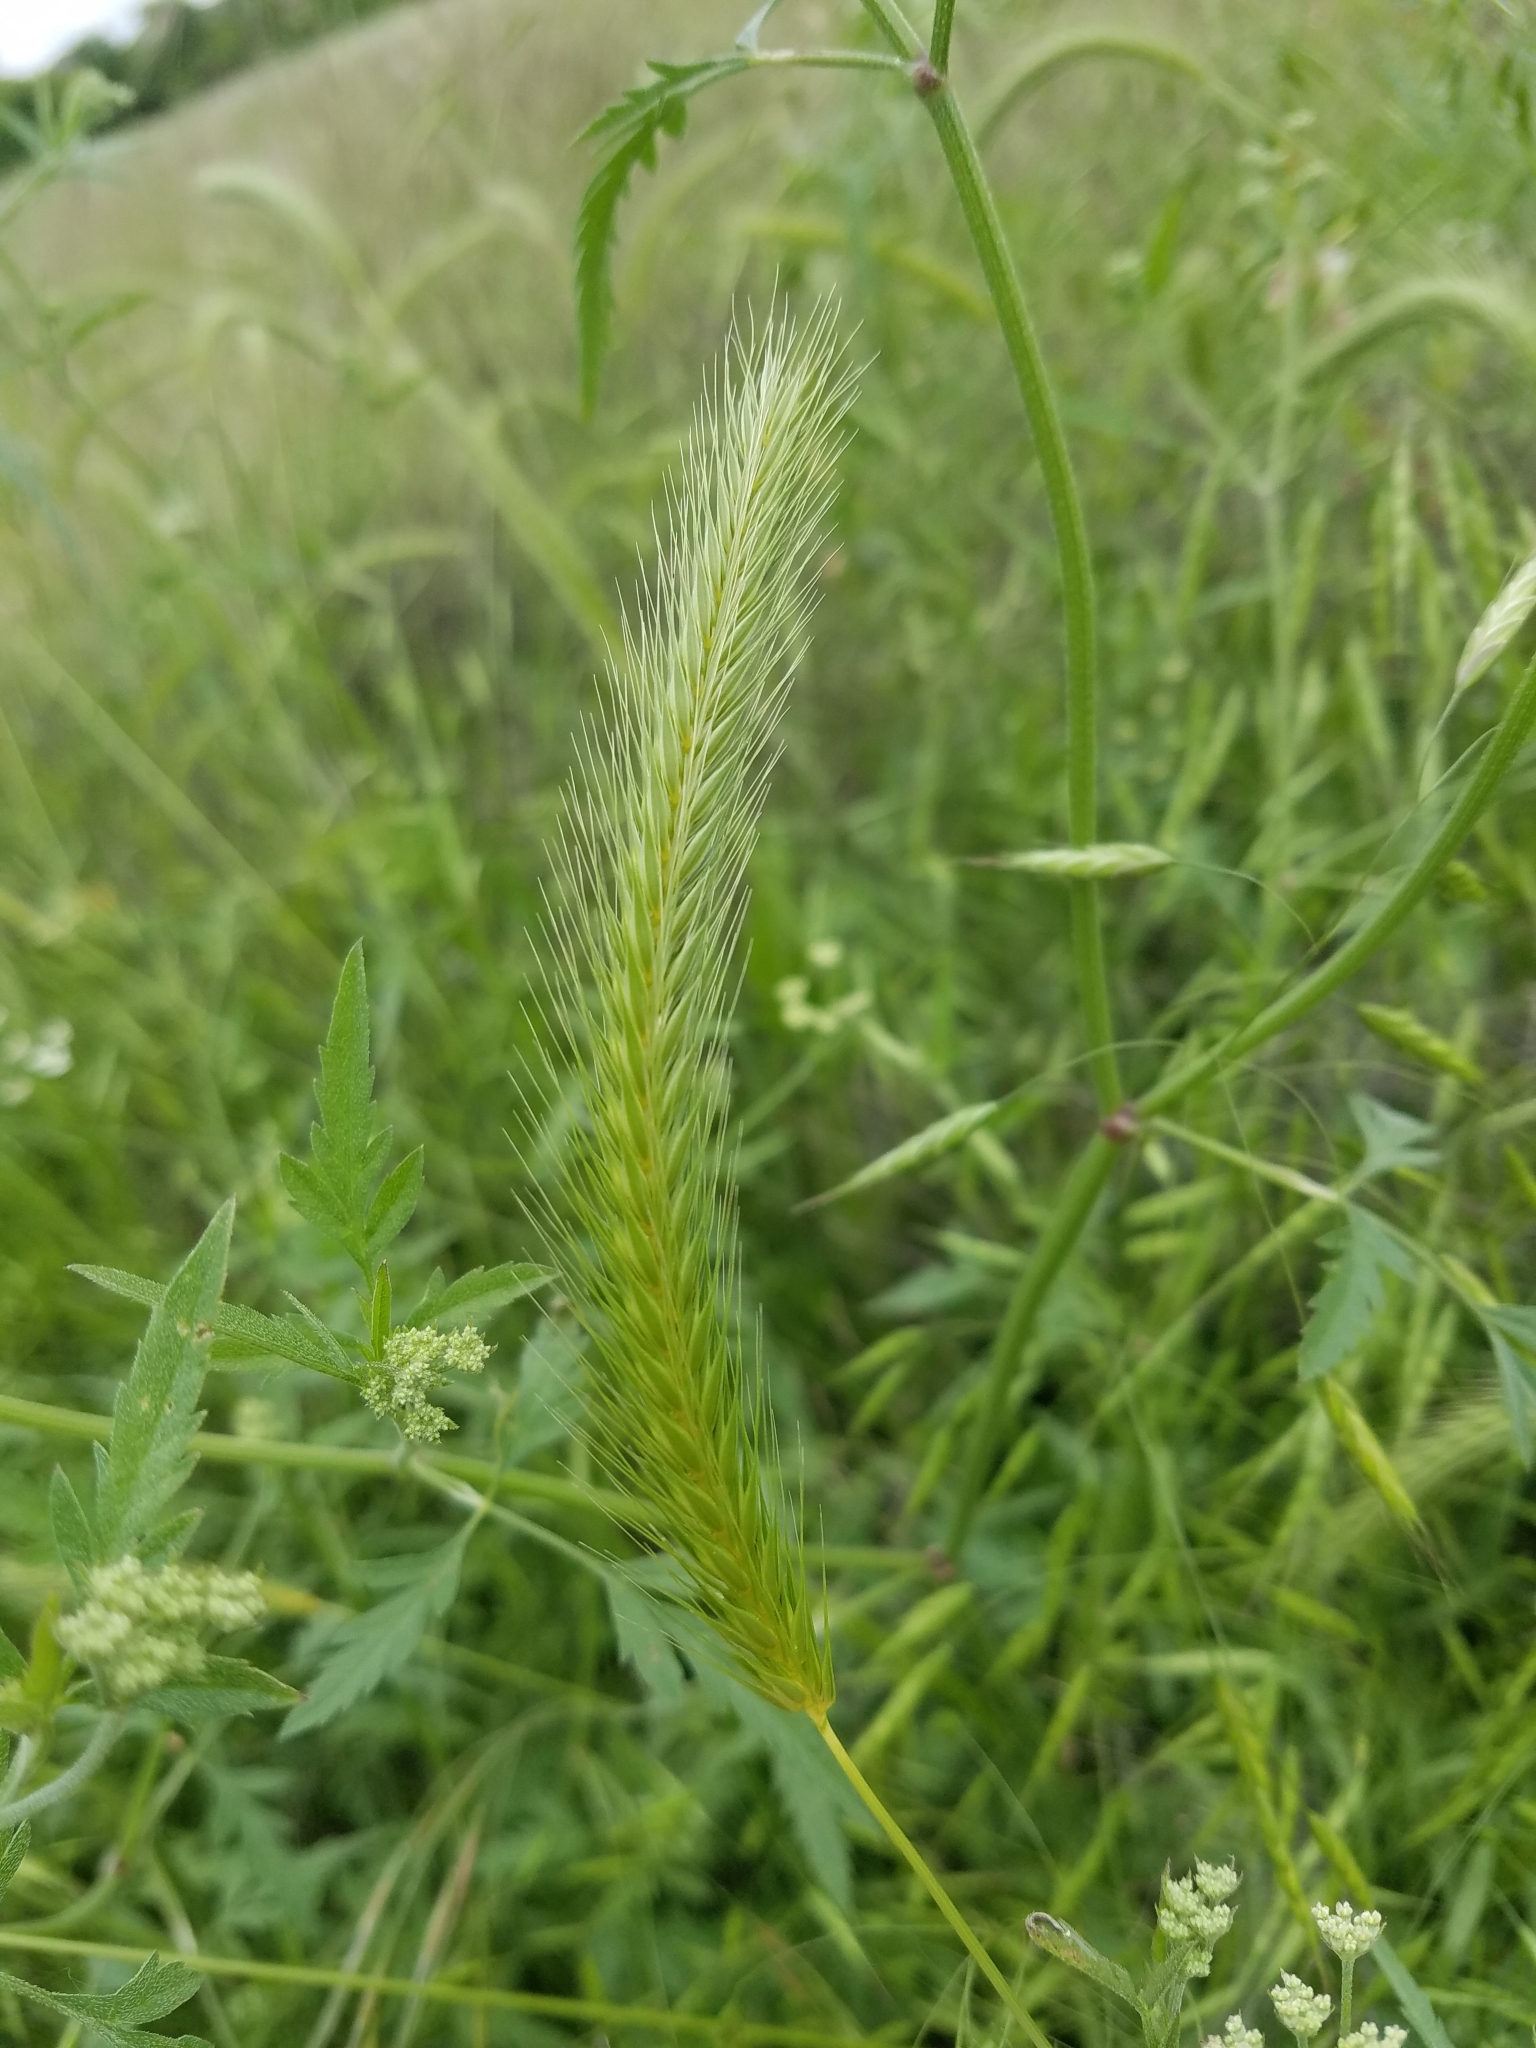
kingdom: Plantae
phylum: Tracheophyta
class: Liliopsida
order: Poales
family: Poaceae
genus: Hordeum
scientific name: Hordeum pusillum
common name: Little barley
